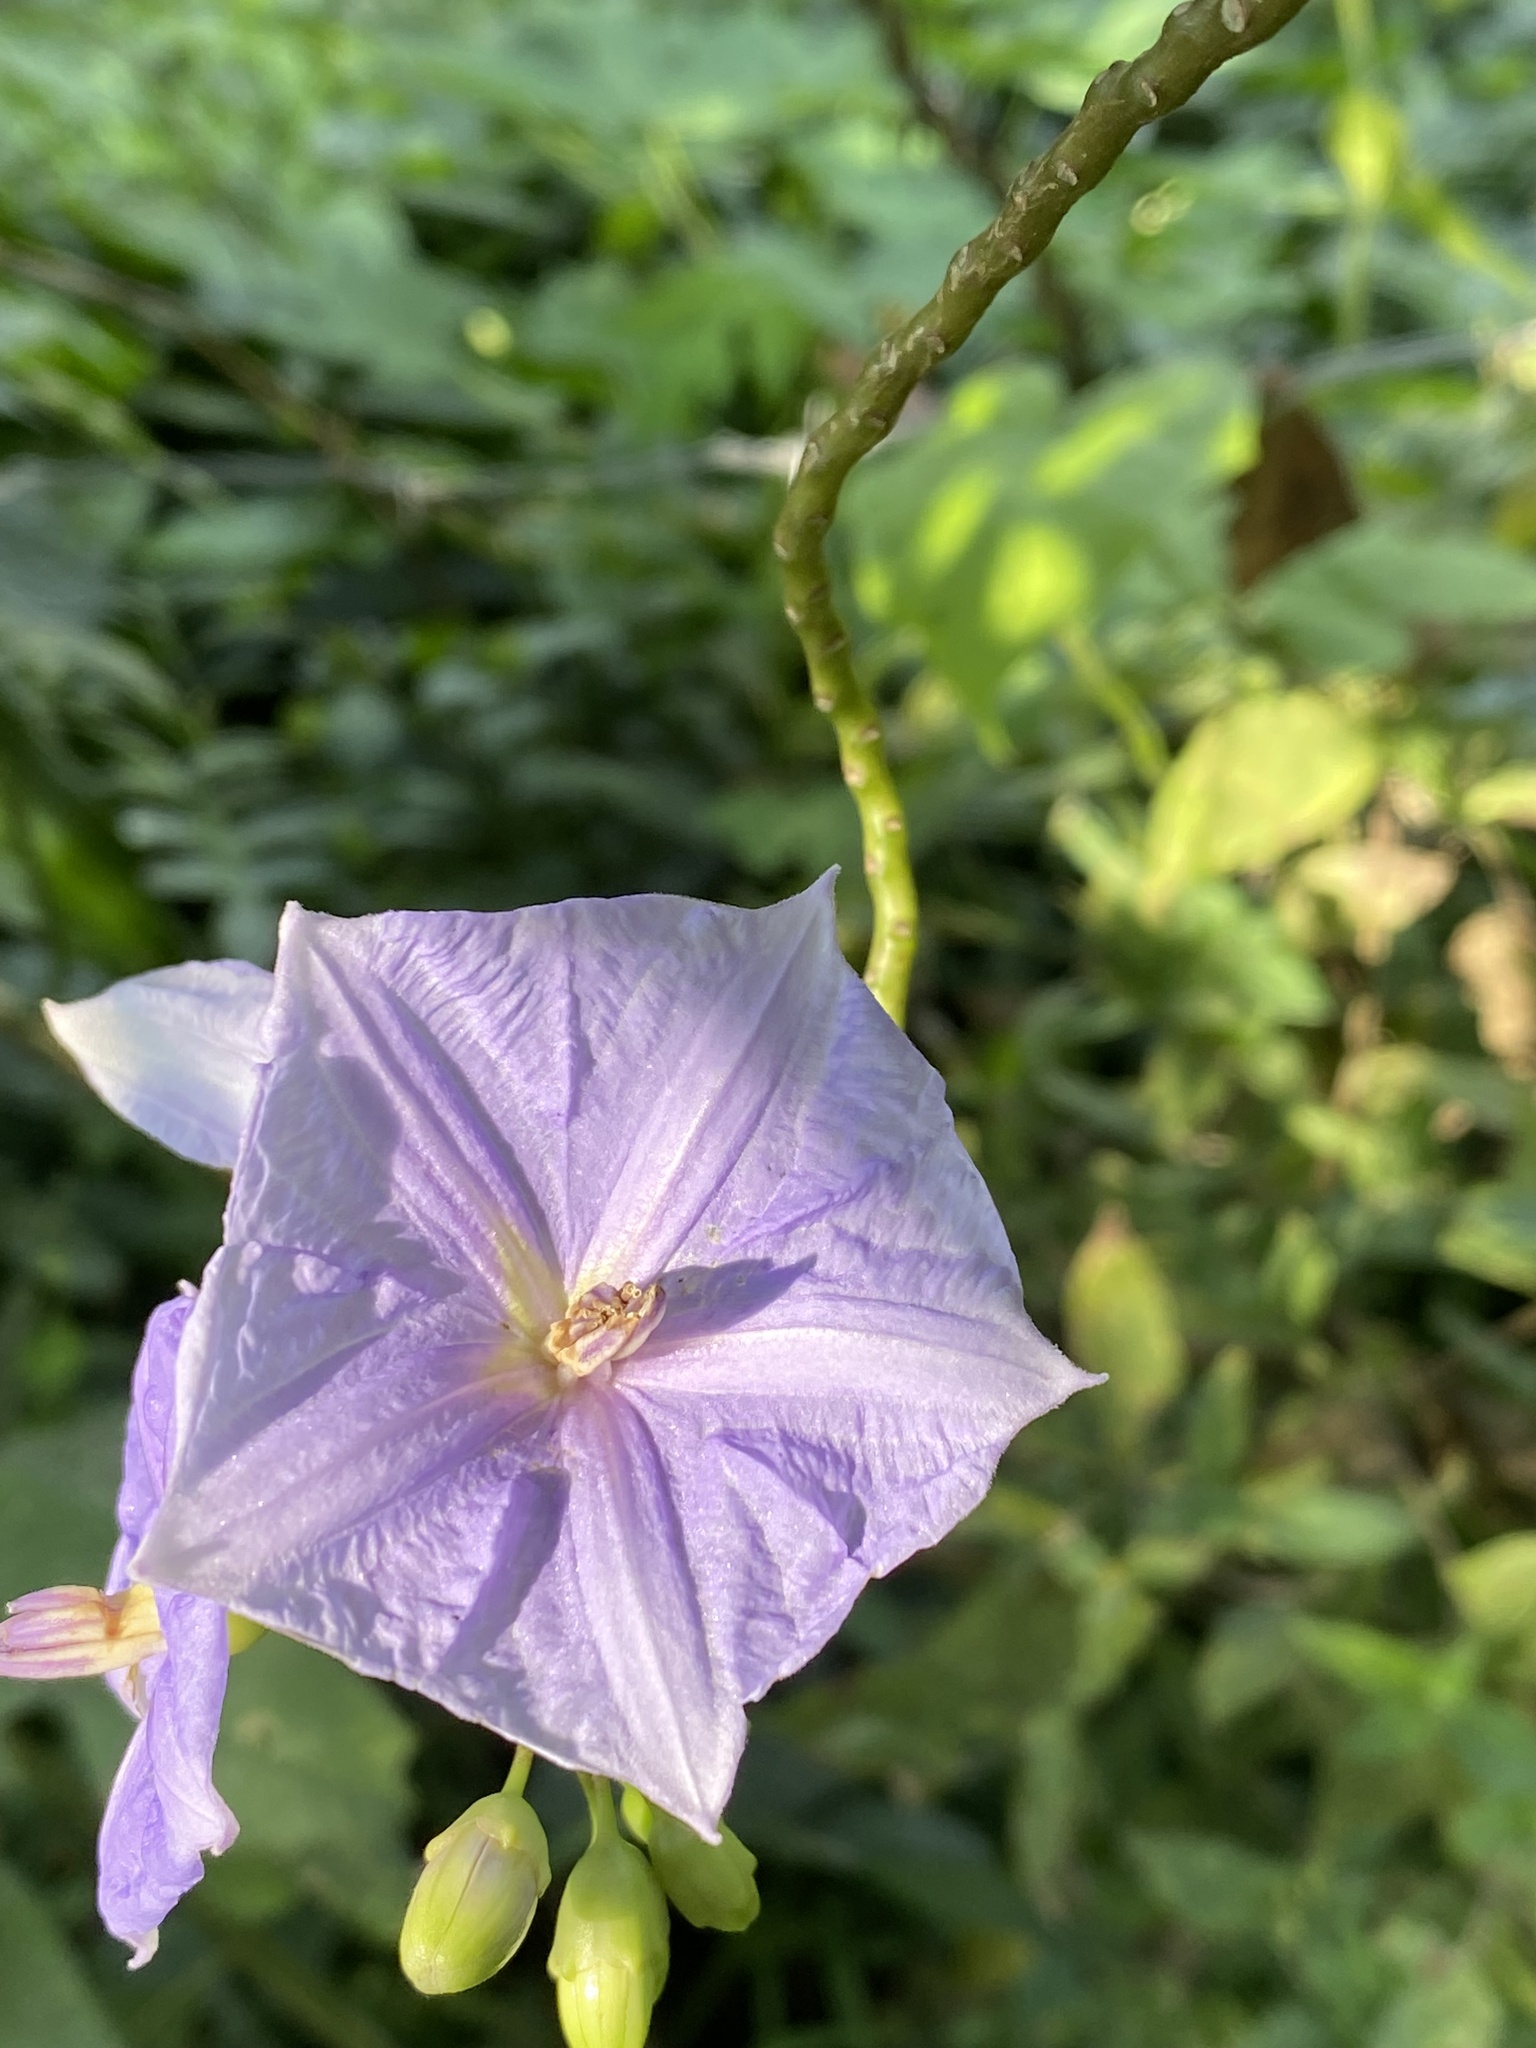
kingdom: Plantae
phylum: Tracheophyta
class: Magnoliopsida
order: Solanales
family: Solanaceae
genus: Solanum
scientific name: Solanum wendlandii
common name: Costa rican nightshade
